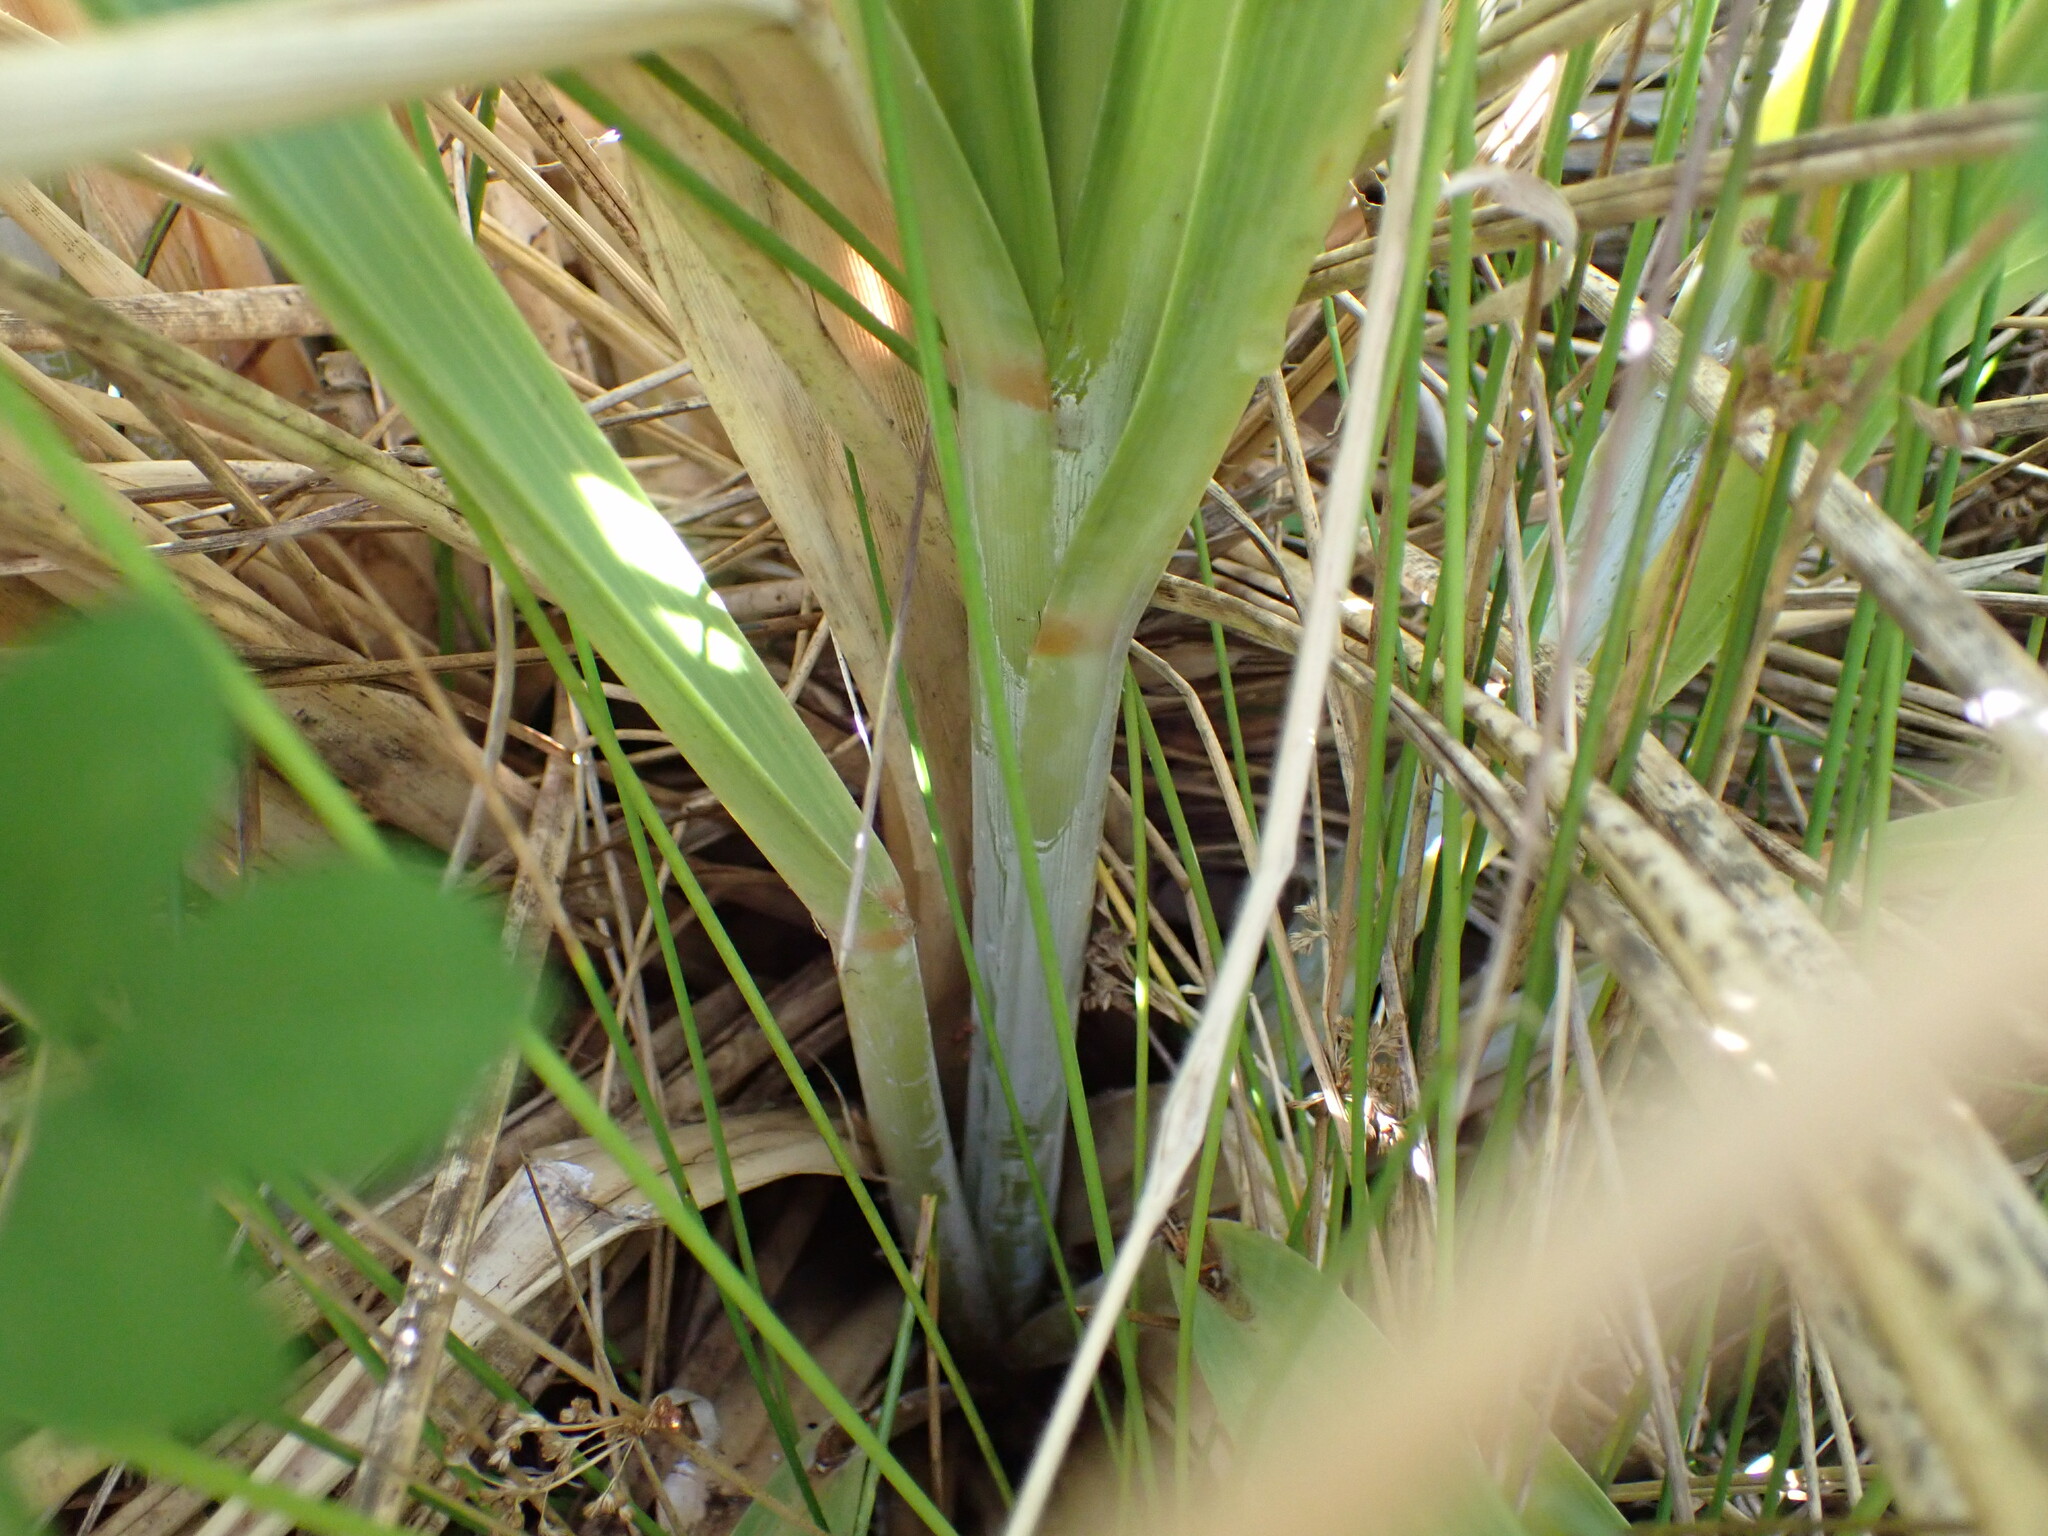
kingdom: Plantae
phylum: Tracheophyta
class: Liliopsida
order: Poales
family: Poaceae
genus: Austroderia
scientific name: Austroderia fulvida
